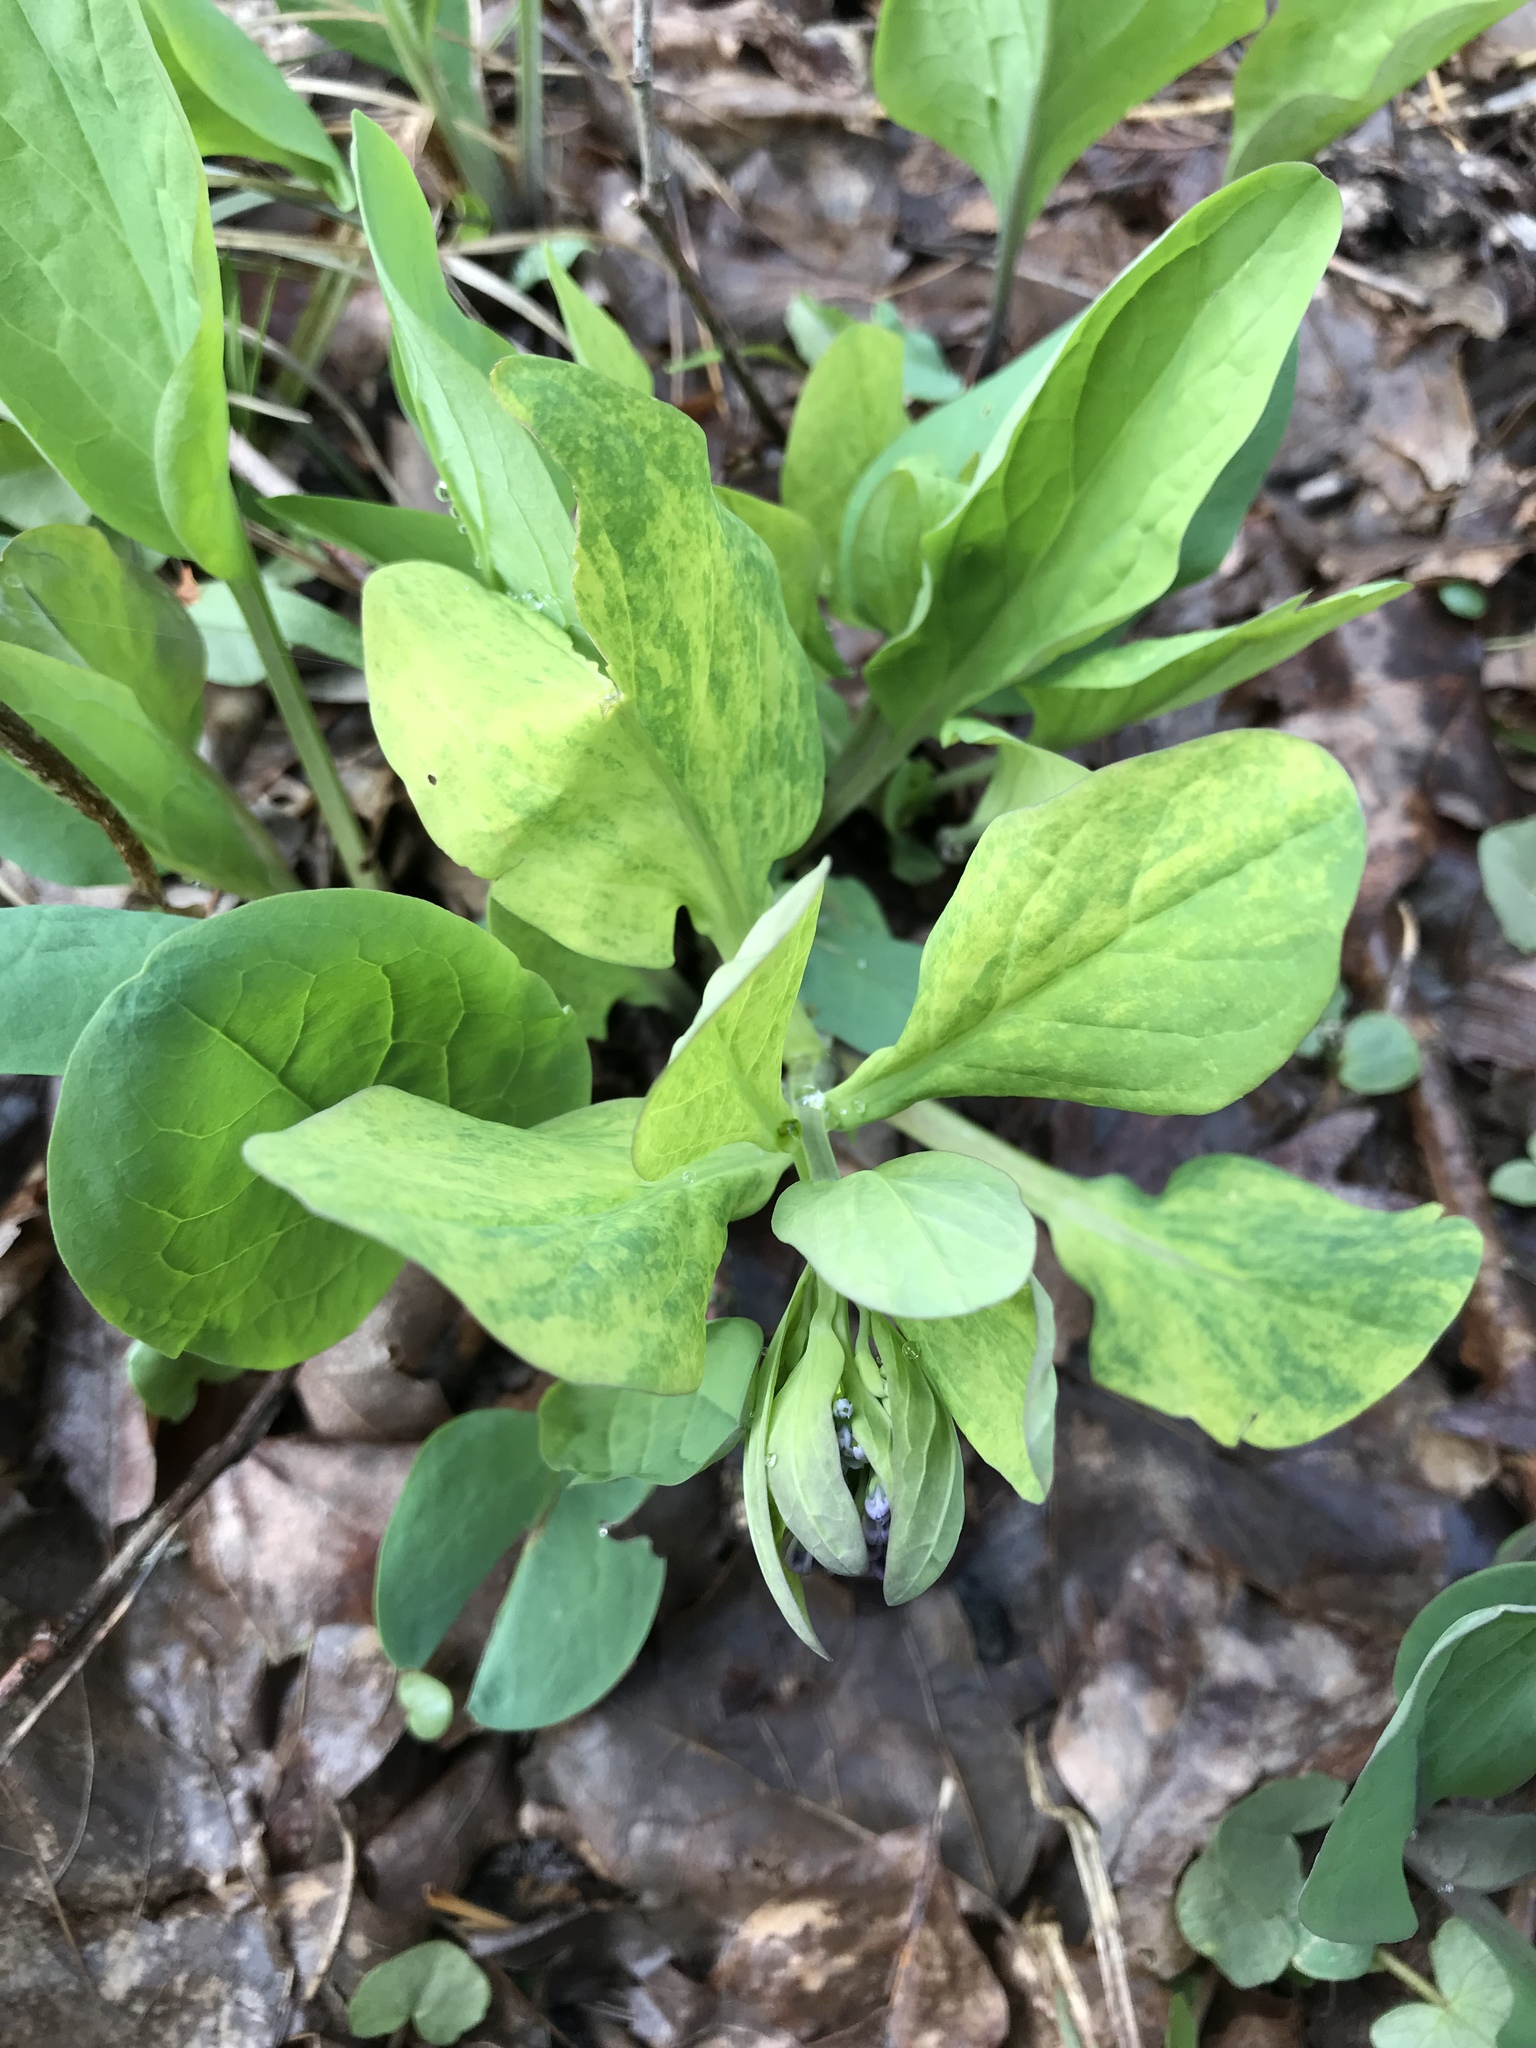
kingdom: Plantae
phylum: Tracheophyta
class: Magnoliopsida
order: Boraginales
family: Boraginaceae
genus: Mertensia
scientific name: Mertensia virginica
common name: Virginia bluebells
